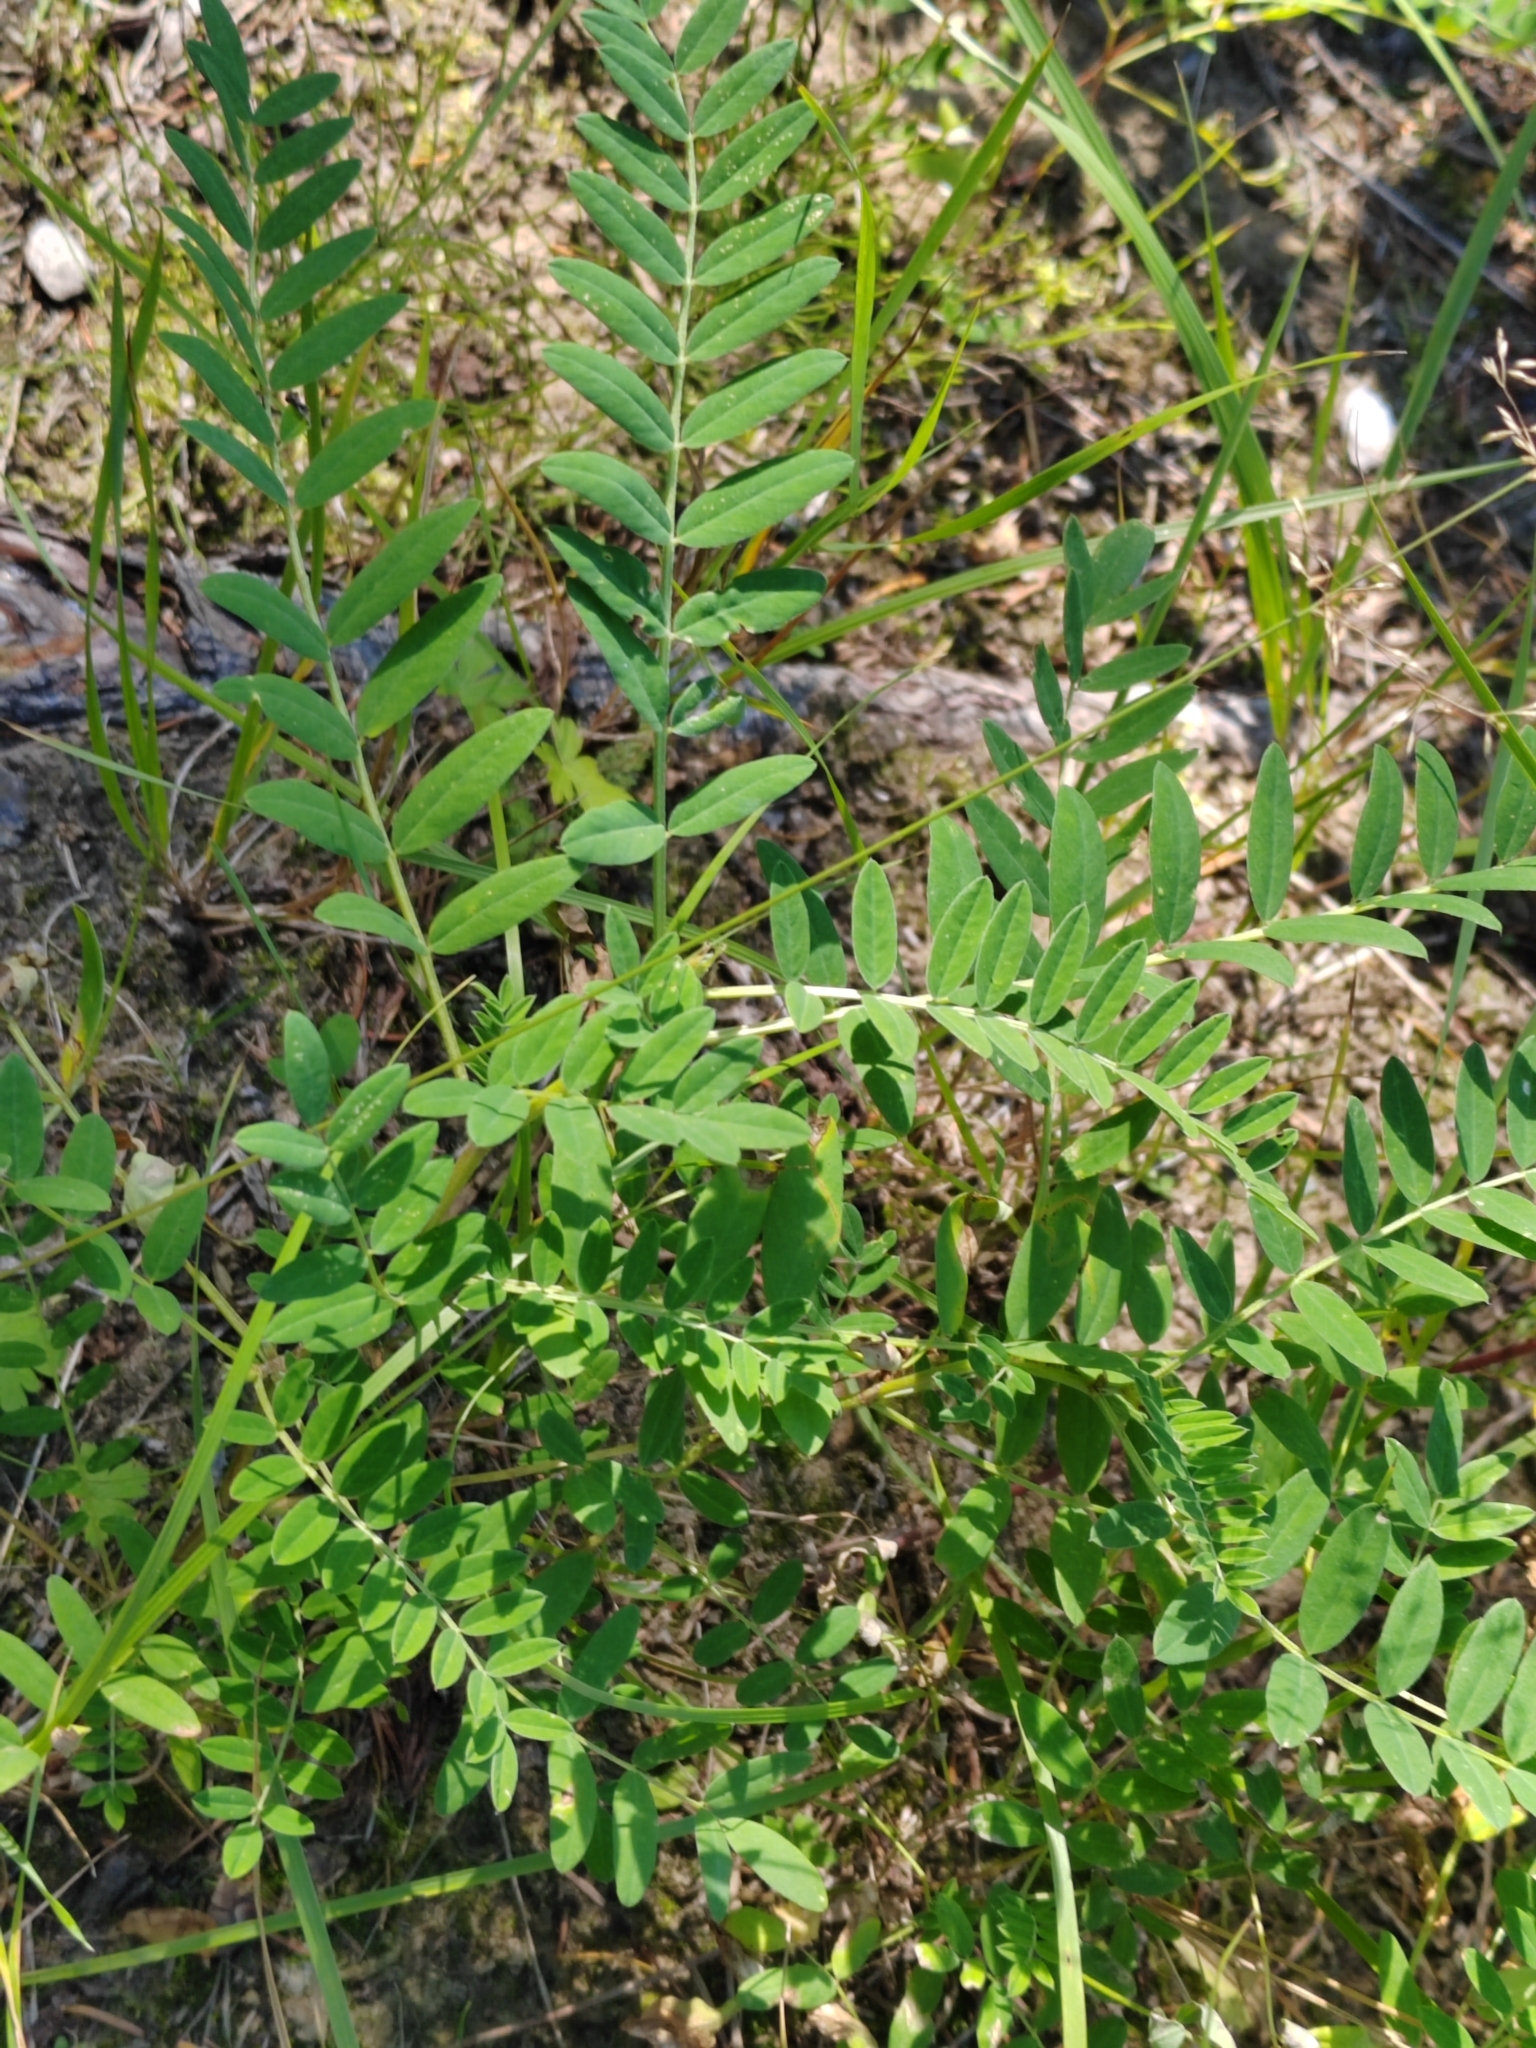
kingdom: Plantae
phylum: Tracheophyta
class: Magnoliopsida
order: Fabales
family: Fabaceae
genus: Astragalus
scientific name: Astragalus uliginosus
